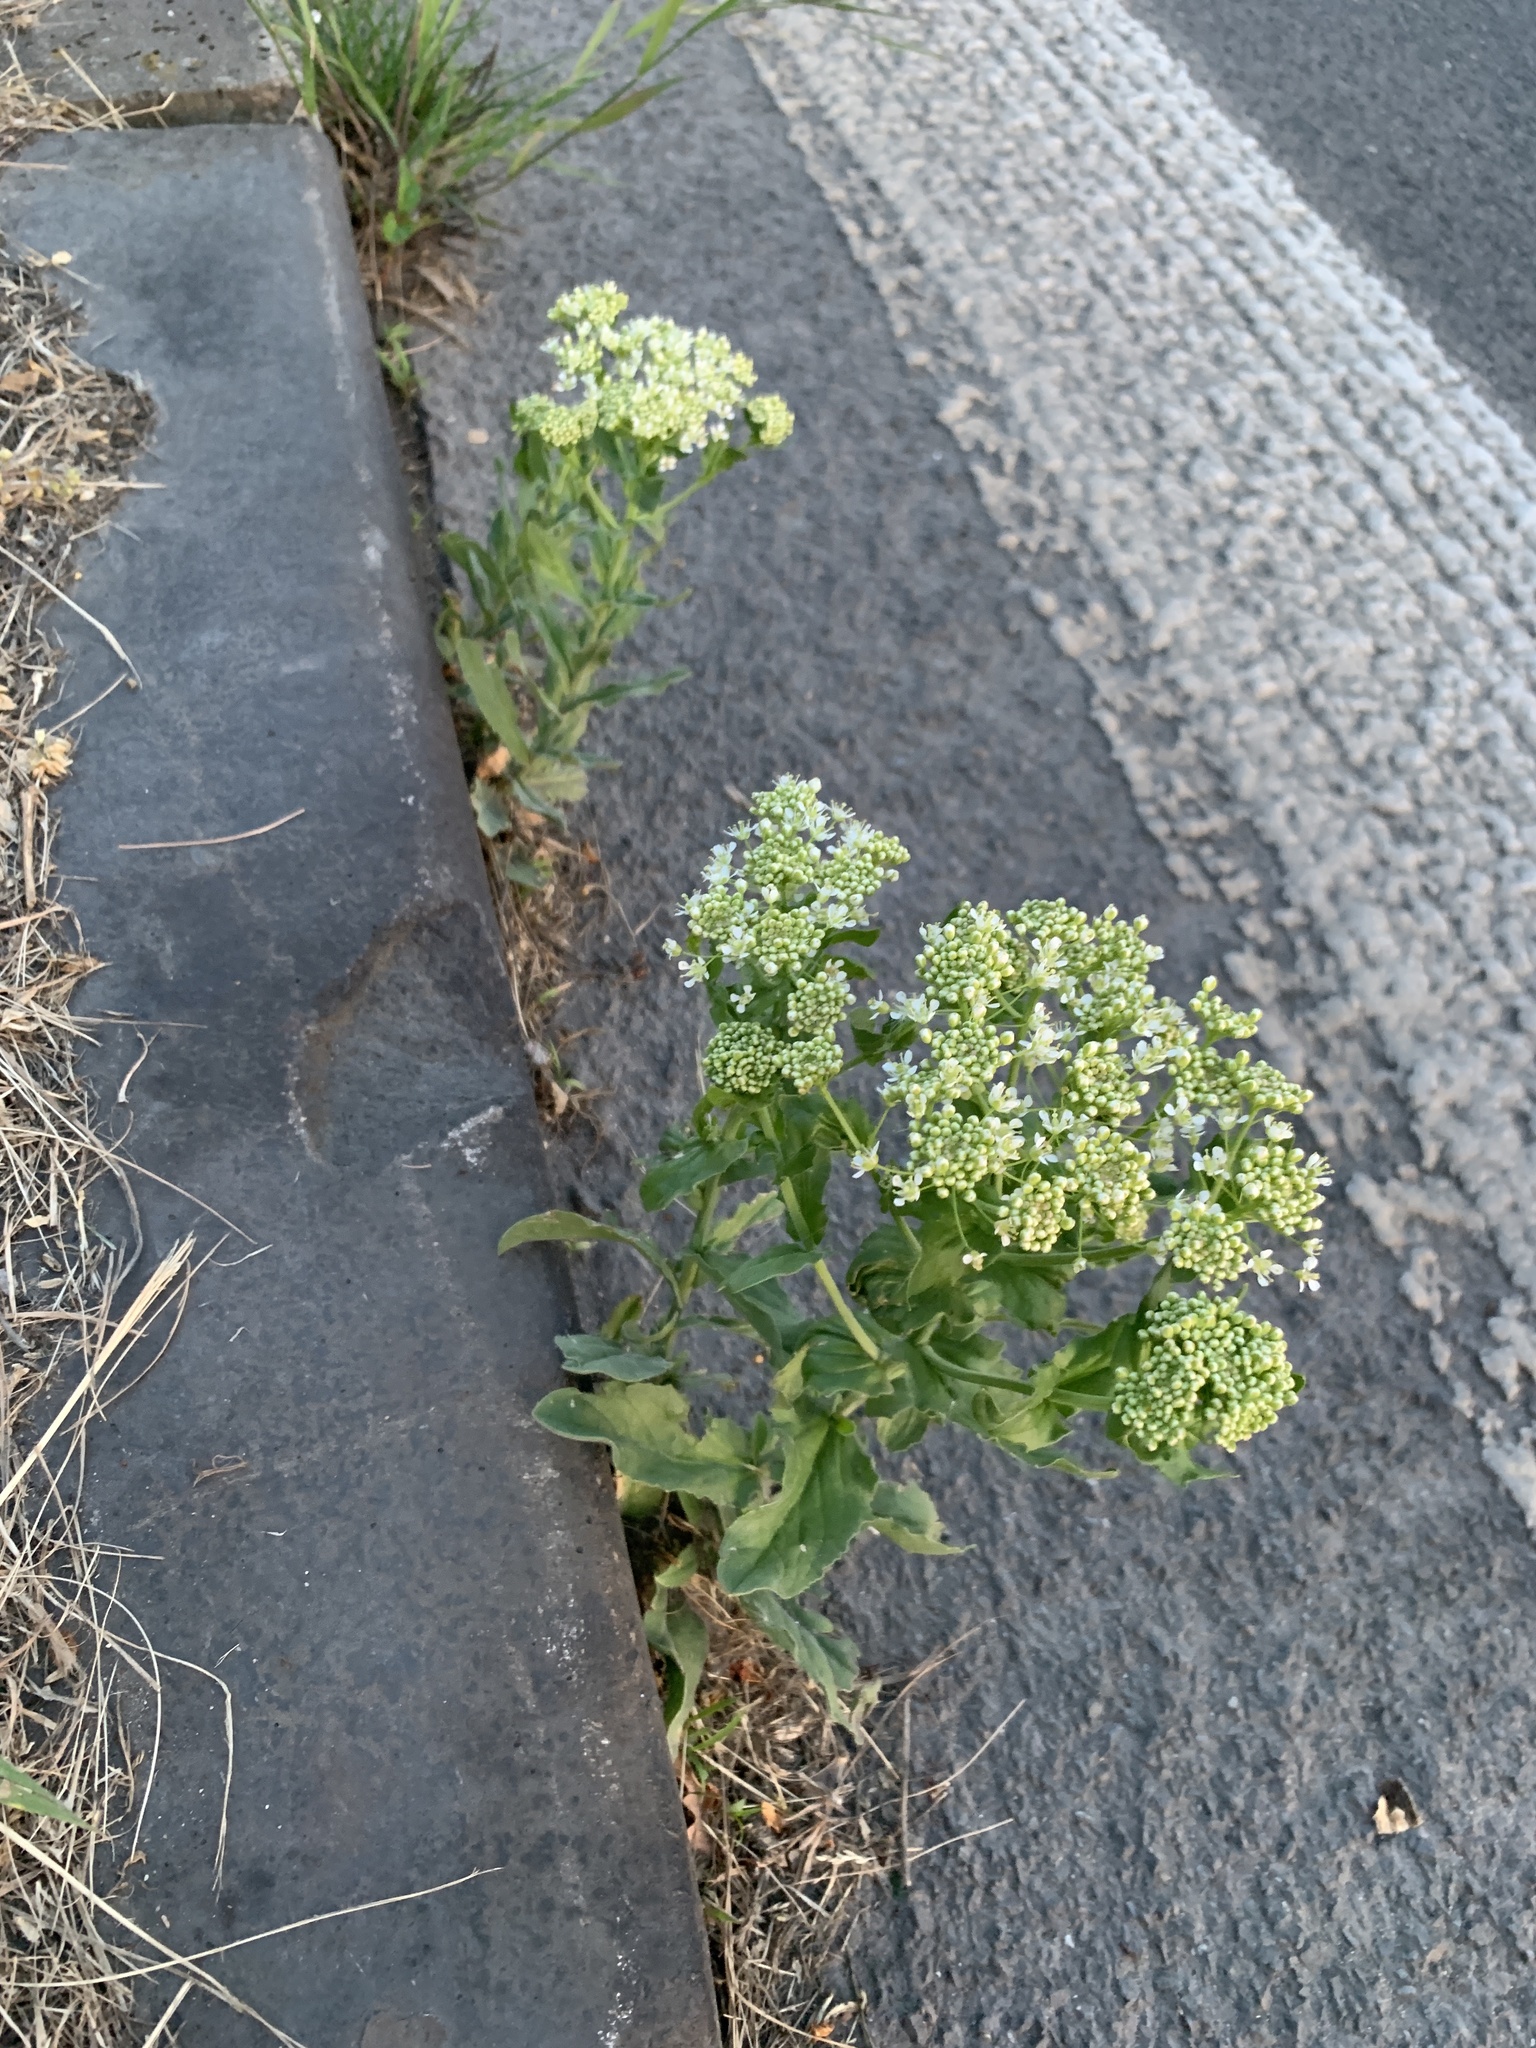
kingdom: Plantae
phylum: Tracheophyta
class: Magnoliopsida
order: Brassicales
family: Brassicaceae
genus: Lepidium
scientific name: Lepidium draba
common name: Hoary cress
